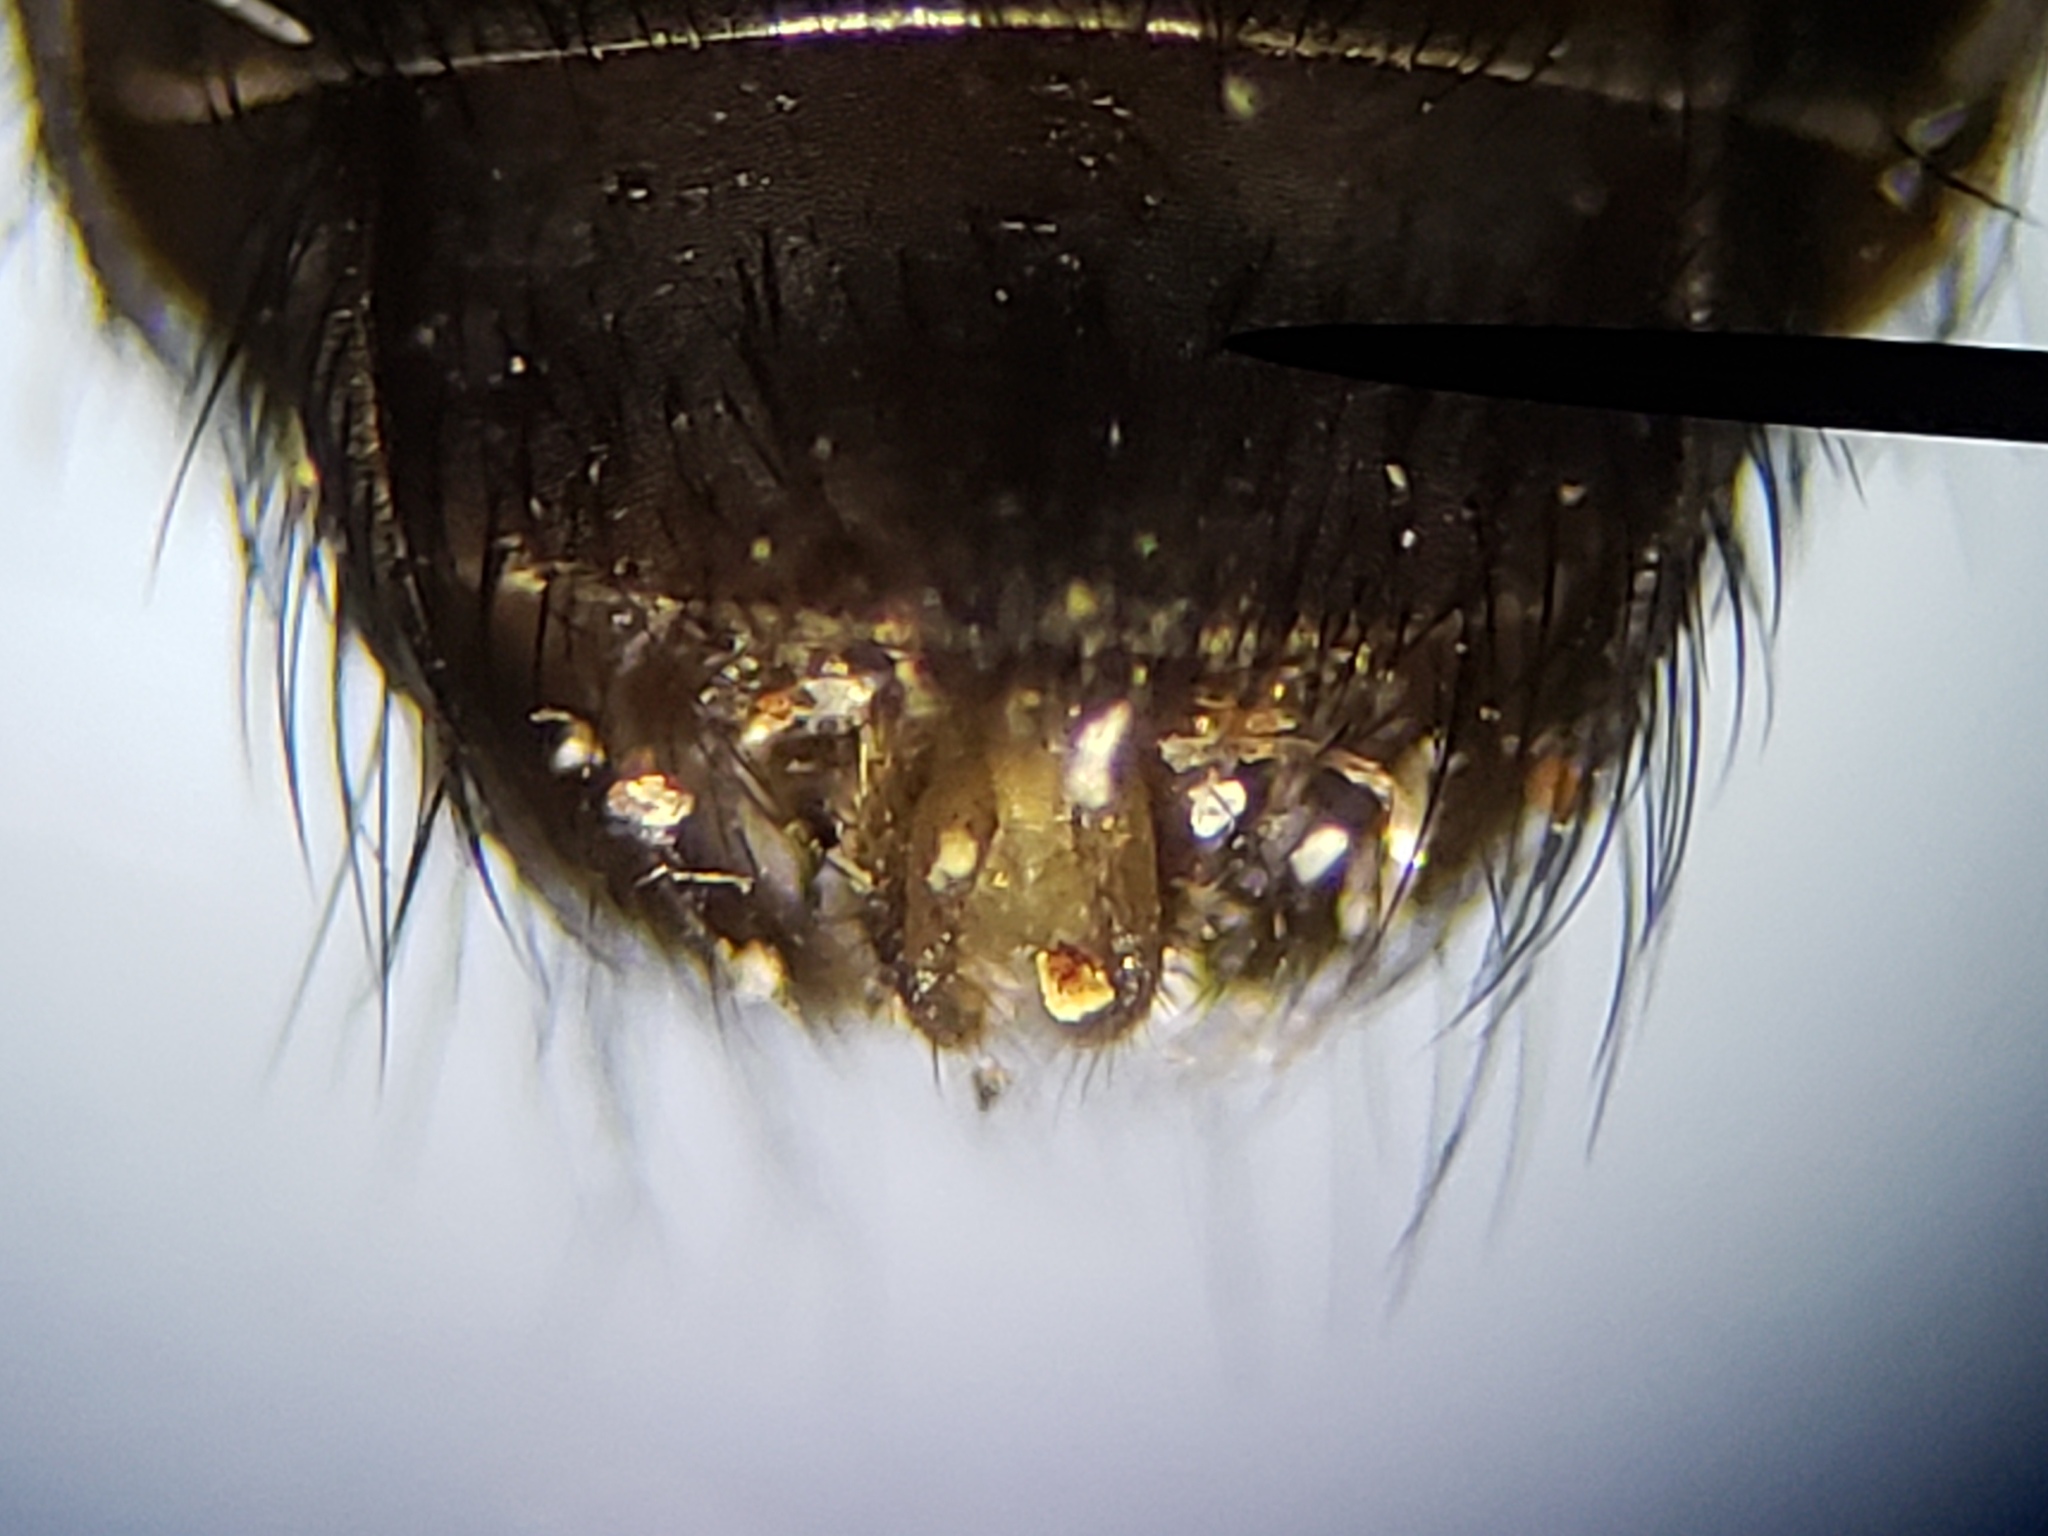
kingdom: Animalia
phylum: Arthropoda
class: Insecta
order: Diptera
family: Bombyliidae
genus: Anthrax
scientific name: Anthrax analis
